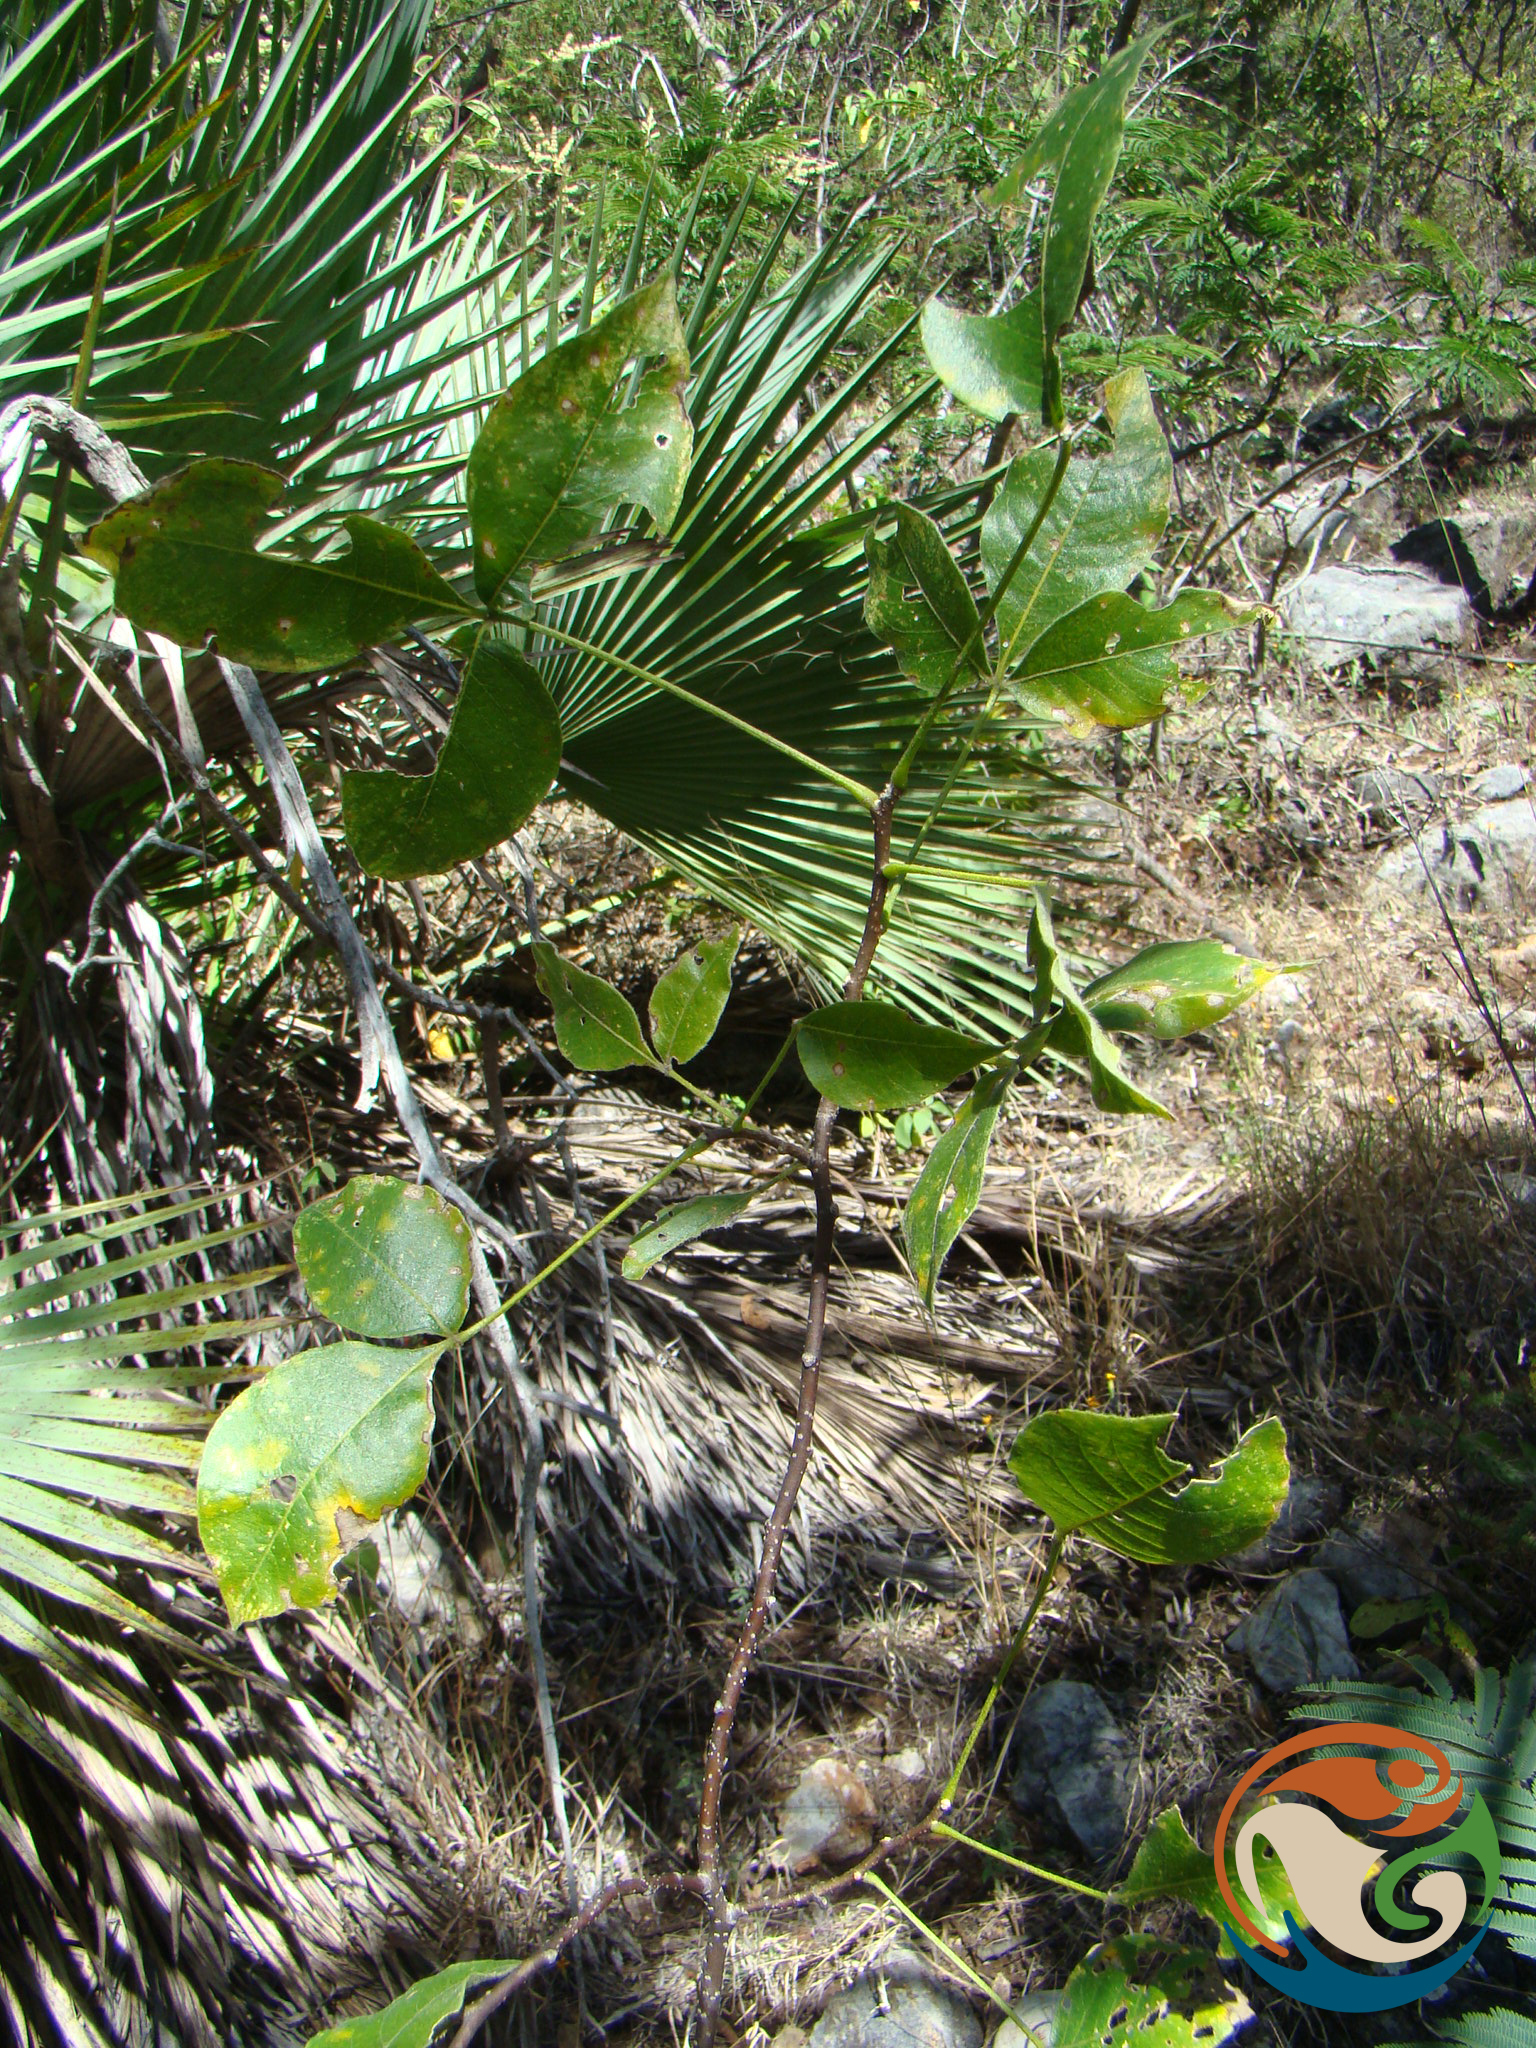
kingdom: Plantae
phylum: Tracheophyta
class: Magnoliopsida
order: Sapindales
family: Rutaceae
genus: Ptelea
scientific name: Ptelea trifoliata
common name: Common hop-tree
